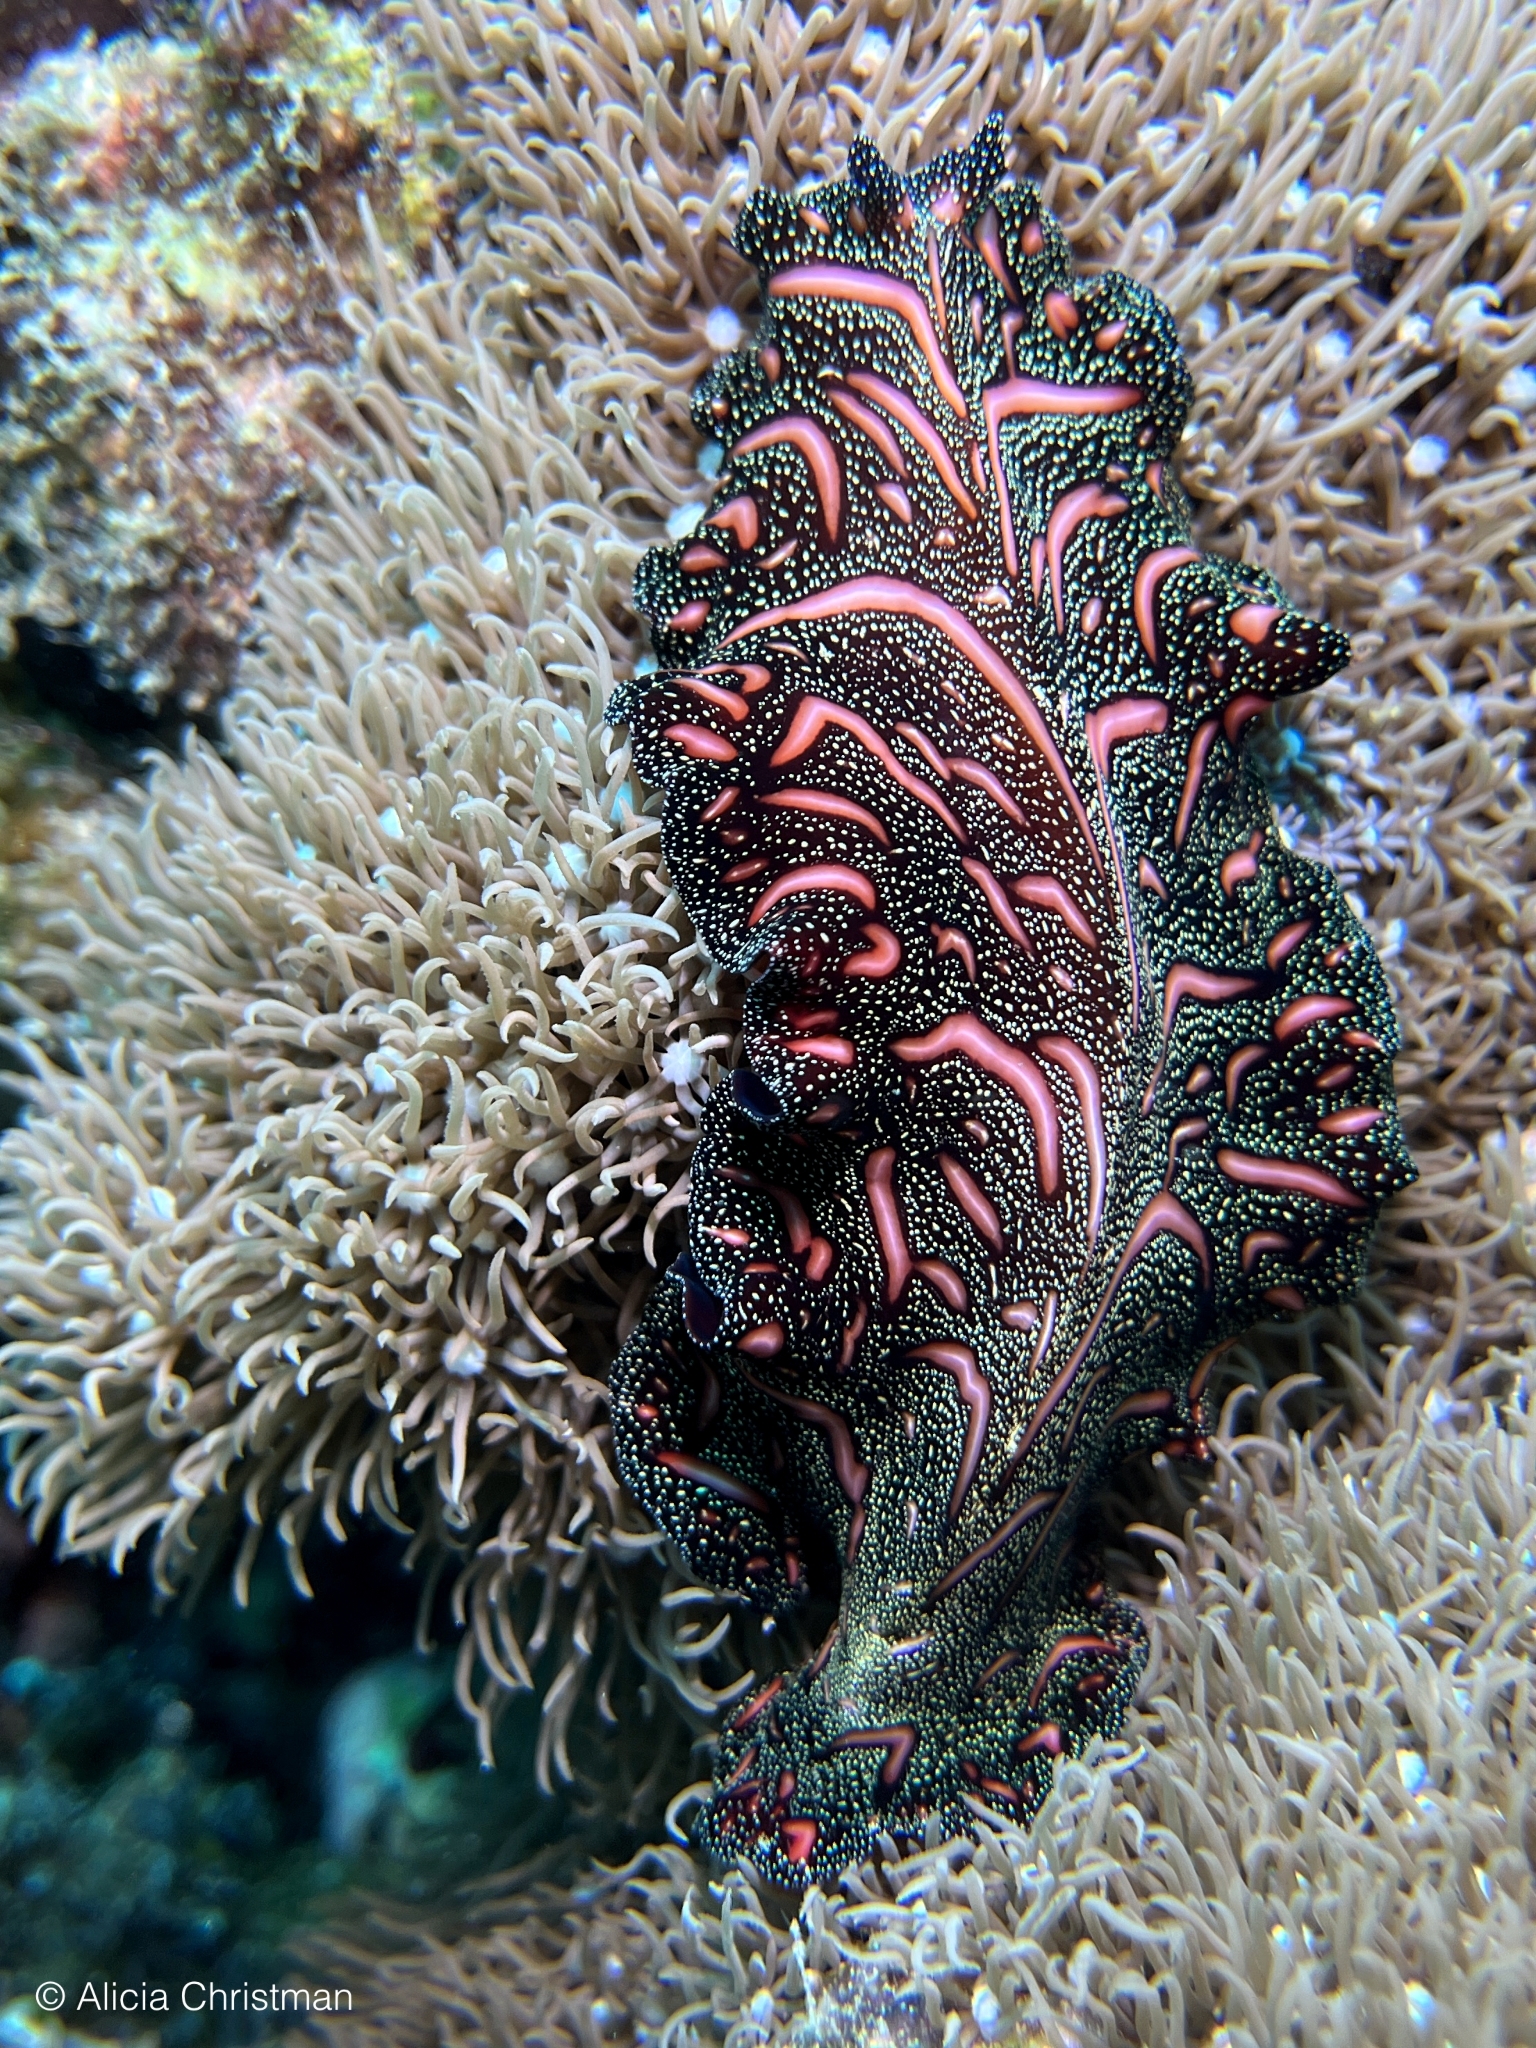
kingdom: Animalia
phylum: Platyhelminthes
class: Turbellaria
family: Pseudocerotidae
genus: Pseudobiceros
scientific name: Pseudobiceros bedfordi
